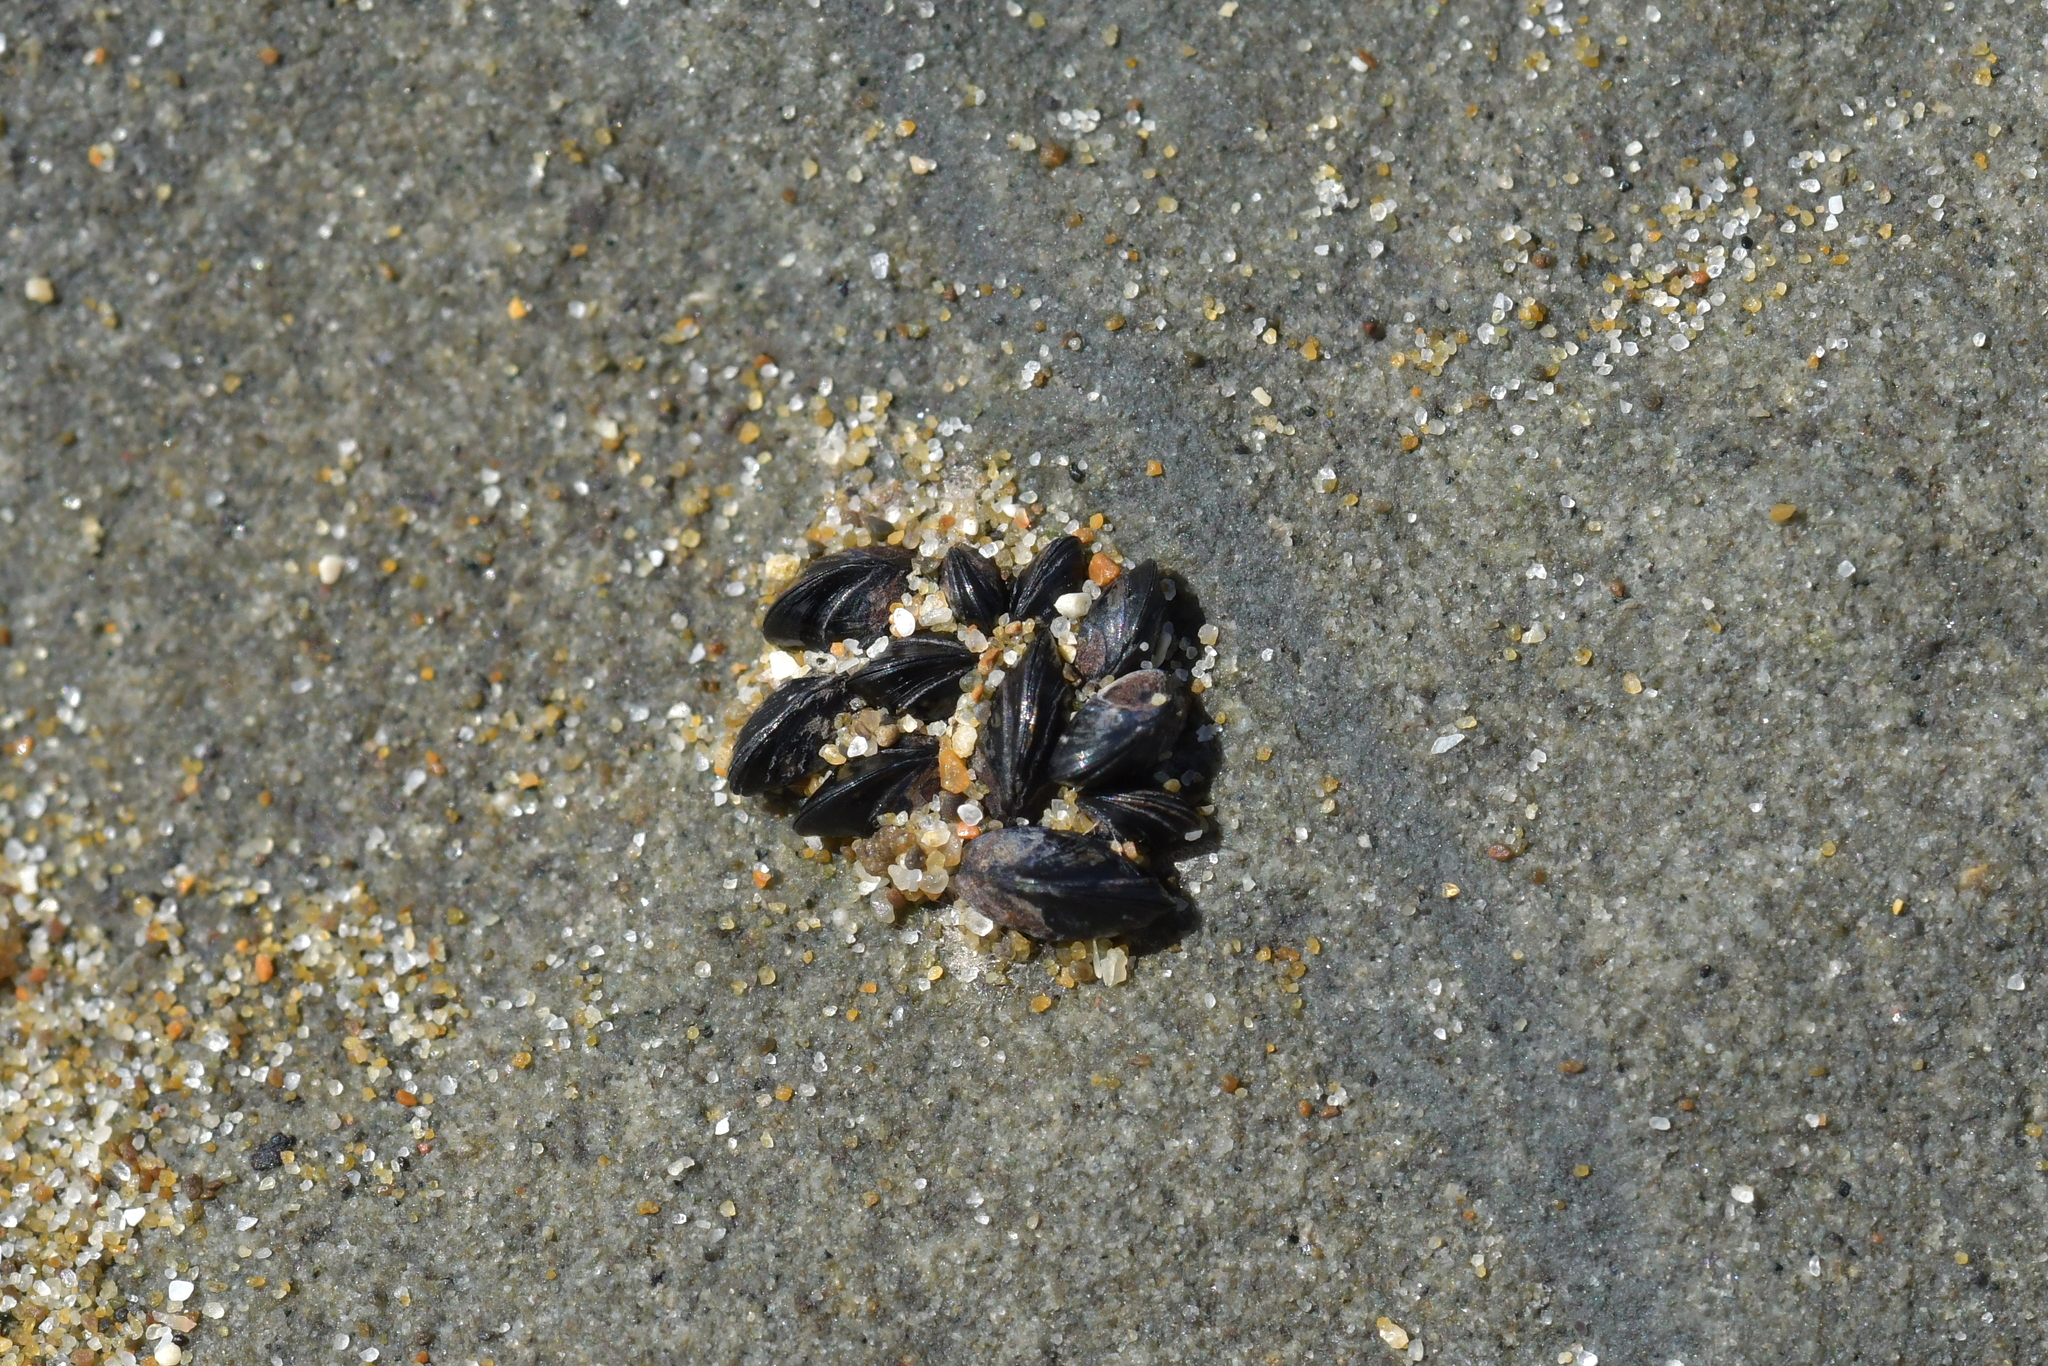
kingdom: Animalia
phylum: Mollusca
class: Bivalvia
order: Mytilida
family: Mytilidae
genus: Xenostrobus
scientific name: Xenostrobus neozelanicus
